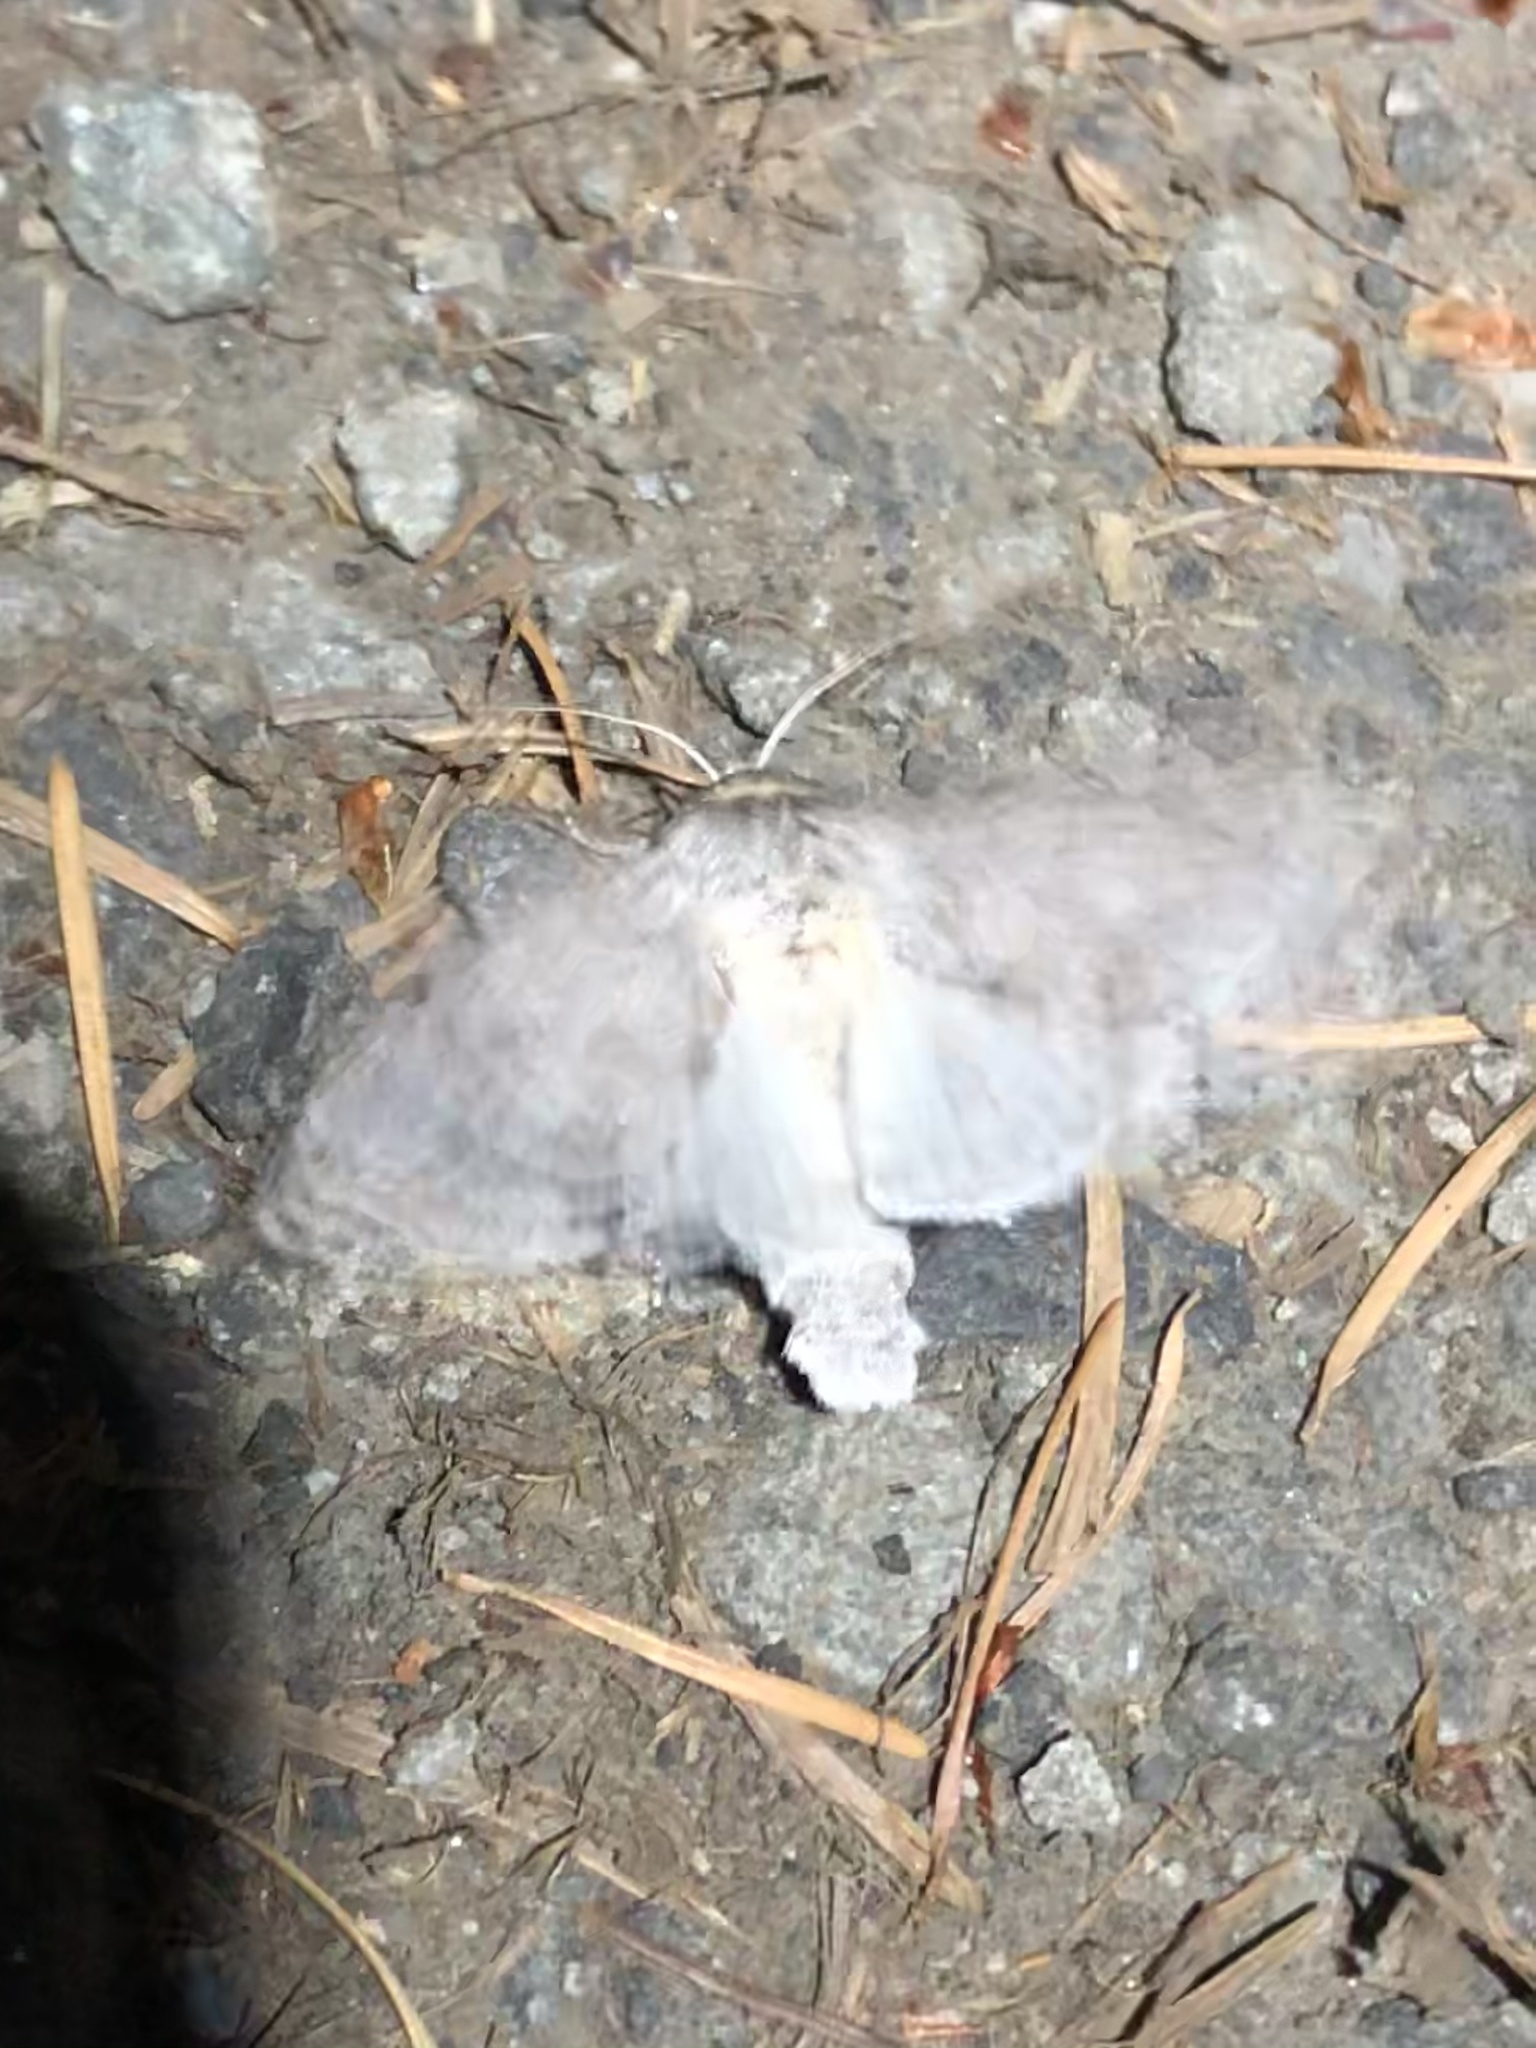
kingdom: Animalia
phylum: Arthropoda
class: Insecta
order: Lepidoptera
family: Noctuidae
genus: Acronicta
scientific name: Acronicta insita
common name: Large gray dagger
